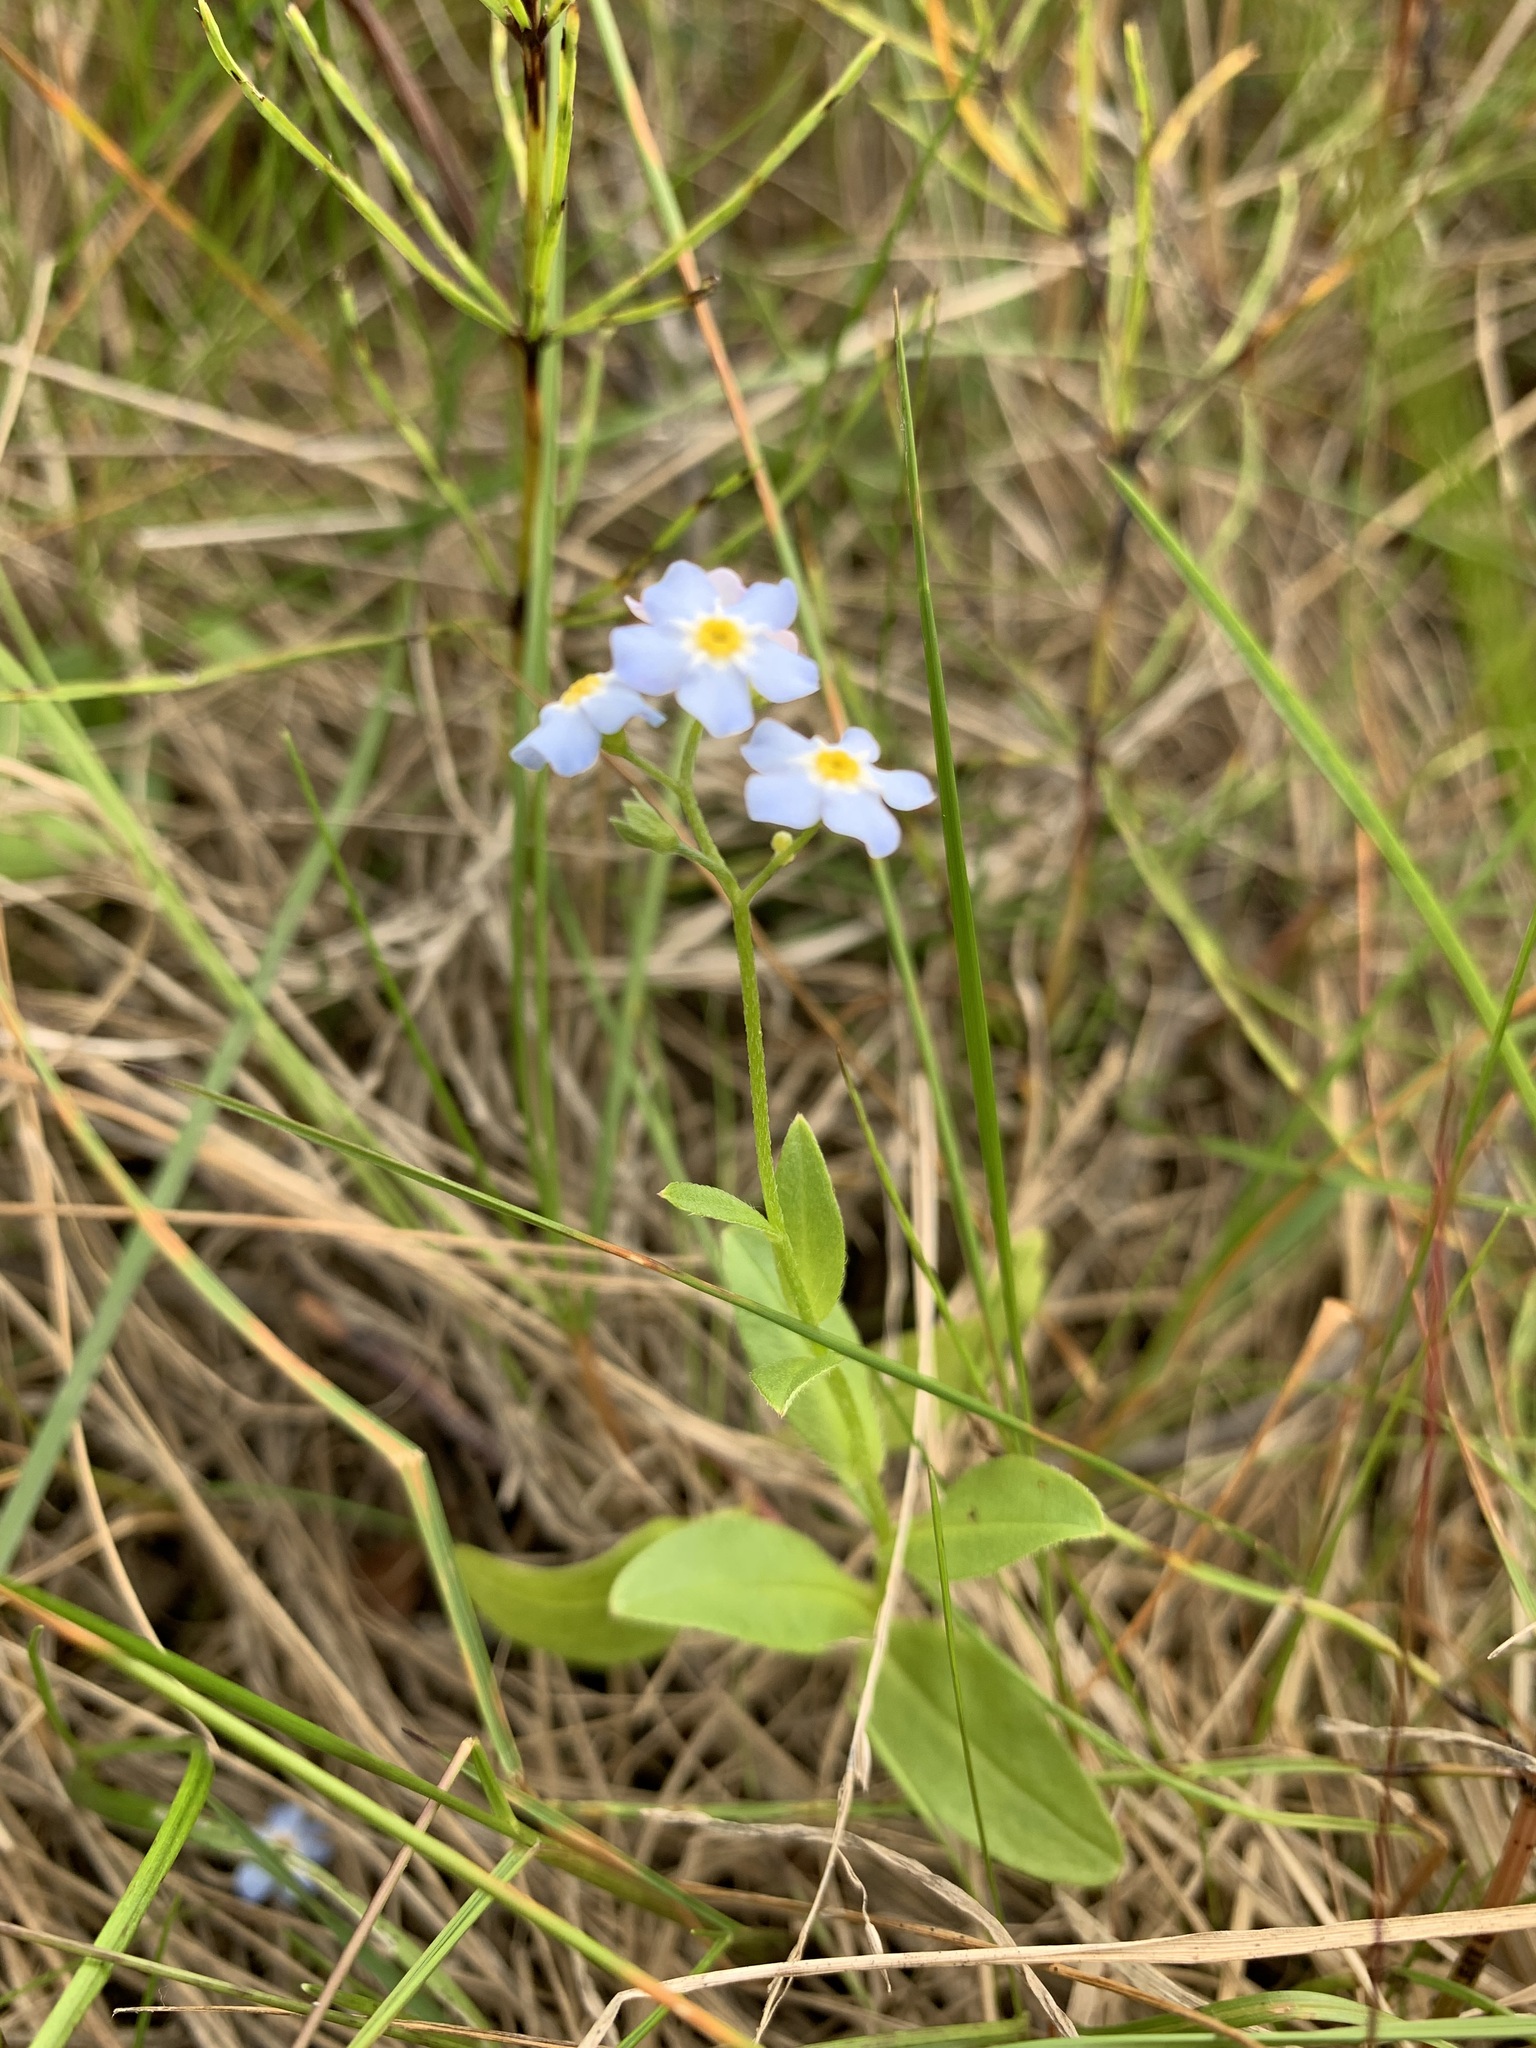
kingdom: Plantae
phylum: Tracheophyta
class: Magnoliopsida
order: Boraginales
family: Boraginaceae
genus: Myosotis
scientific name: Myosotis scorpioides
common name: Water forget-me-not
